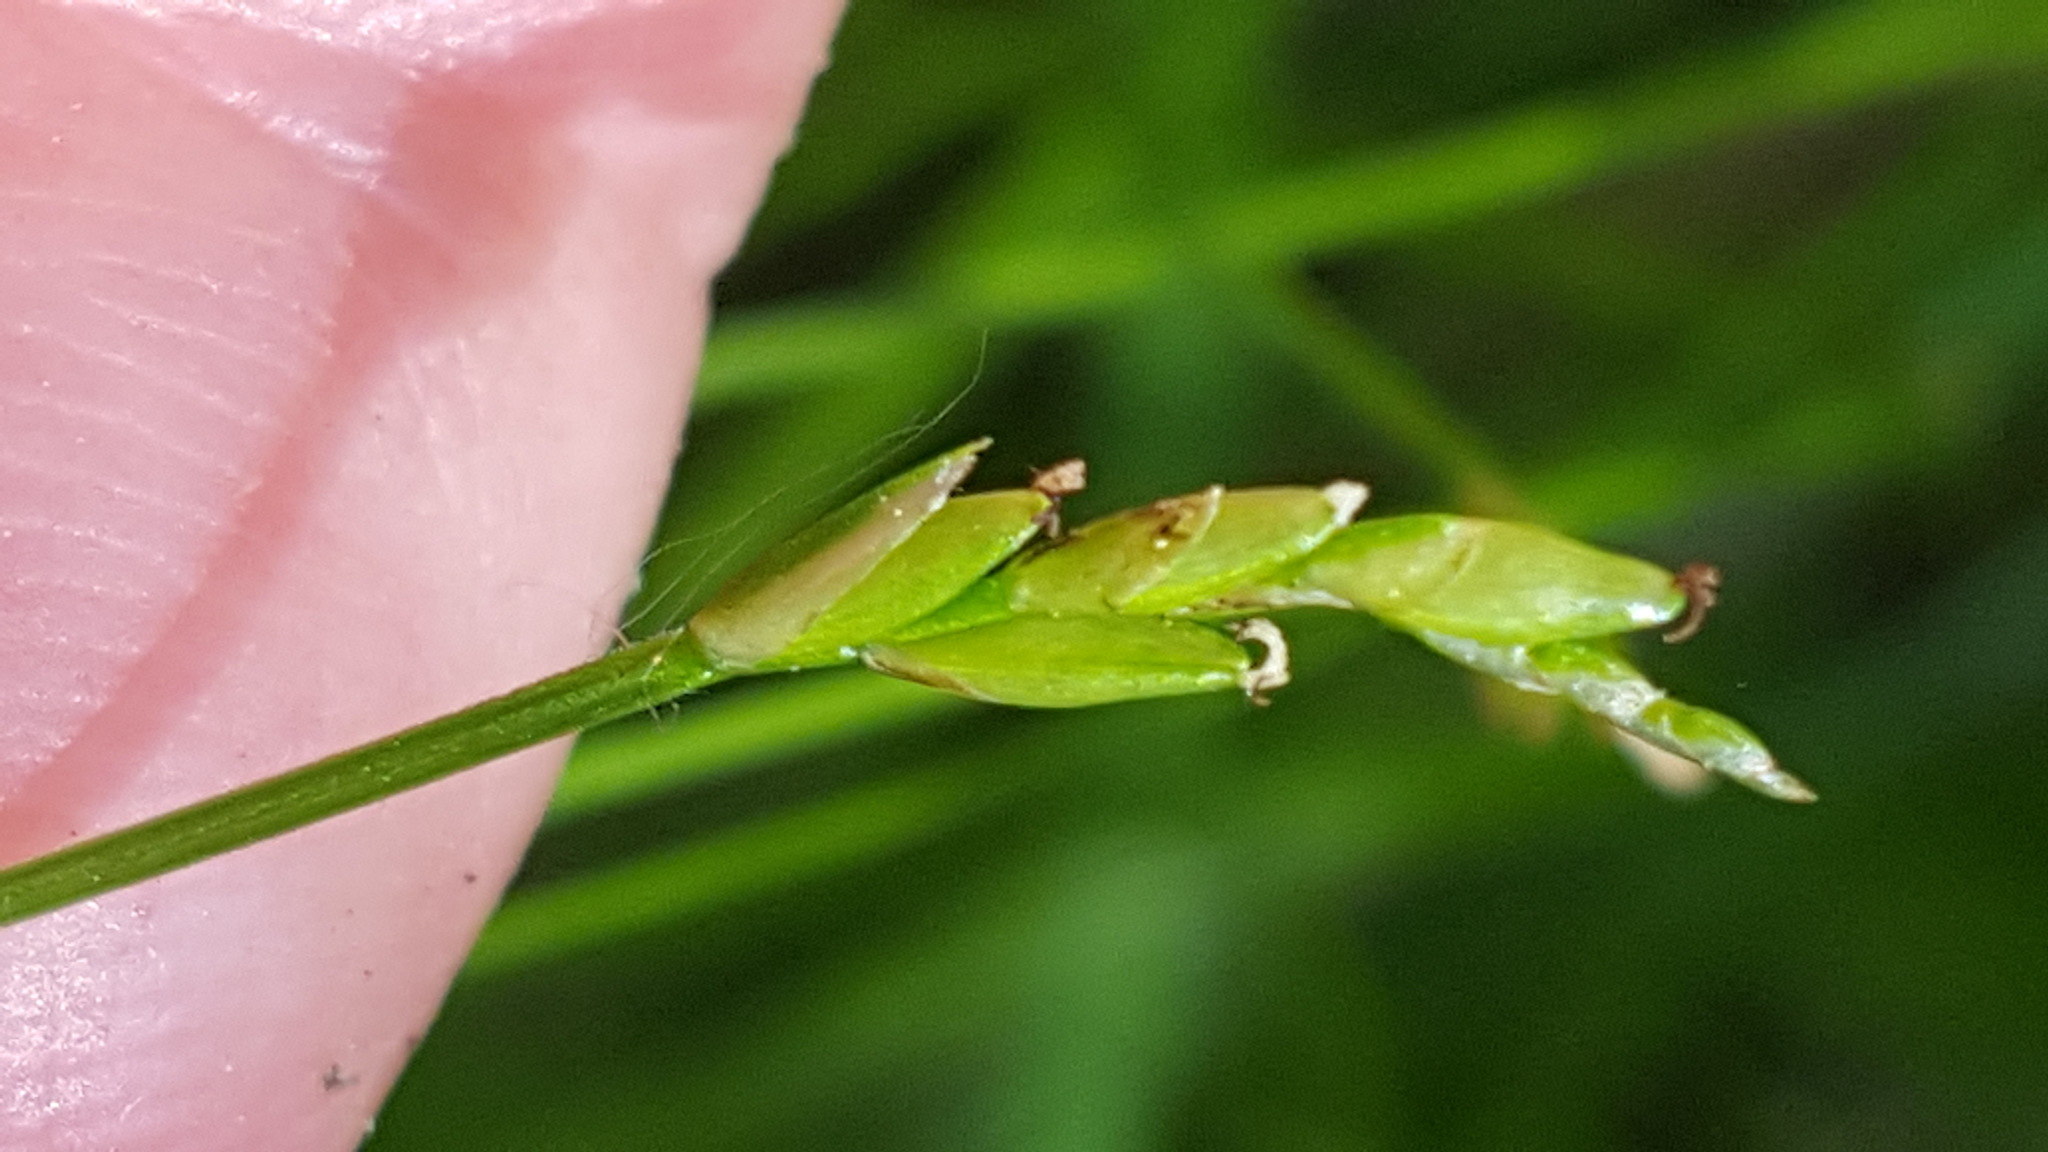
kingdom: Plantae
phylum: Tracheophyta
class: Liliopsida
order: Poales
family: Cyperaceae
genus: Carex
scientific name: Carex leptalea
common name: Bristly-stalked sedge
